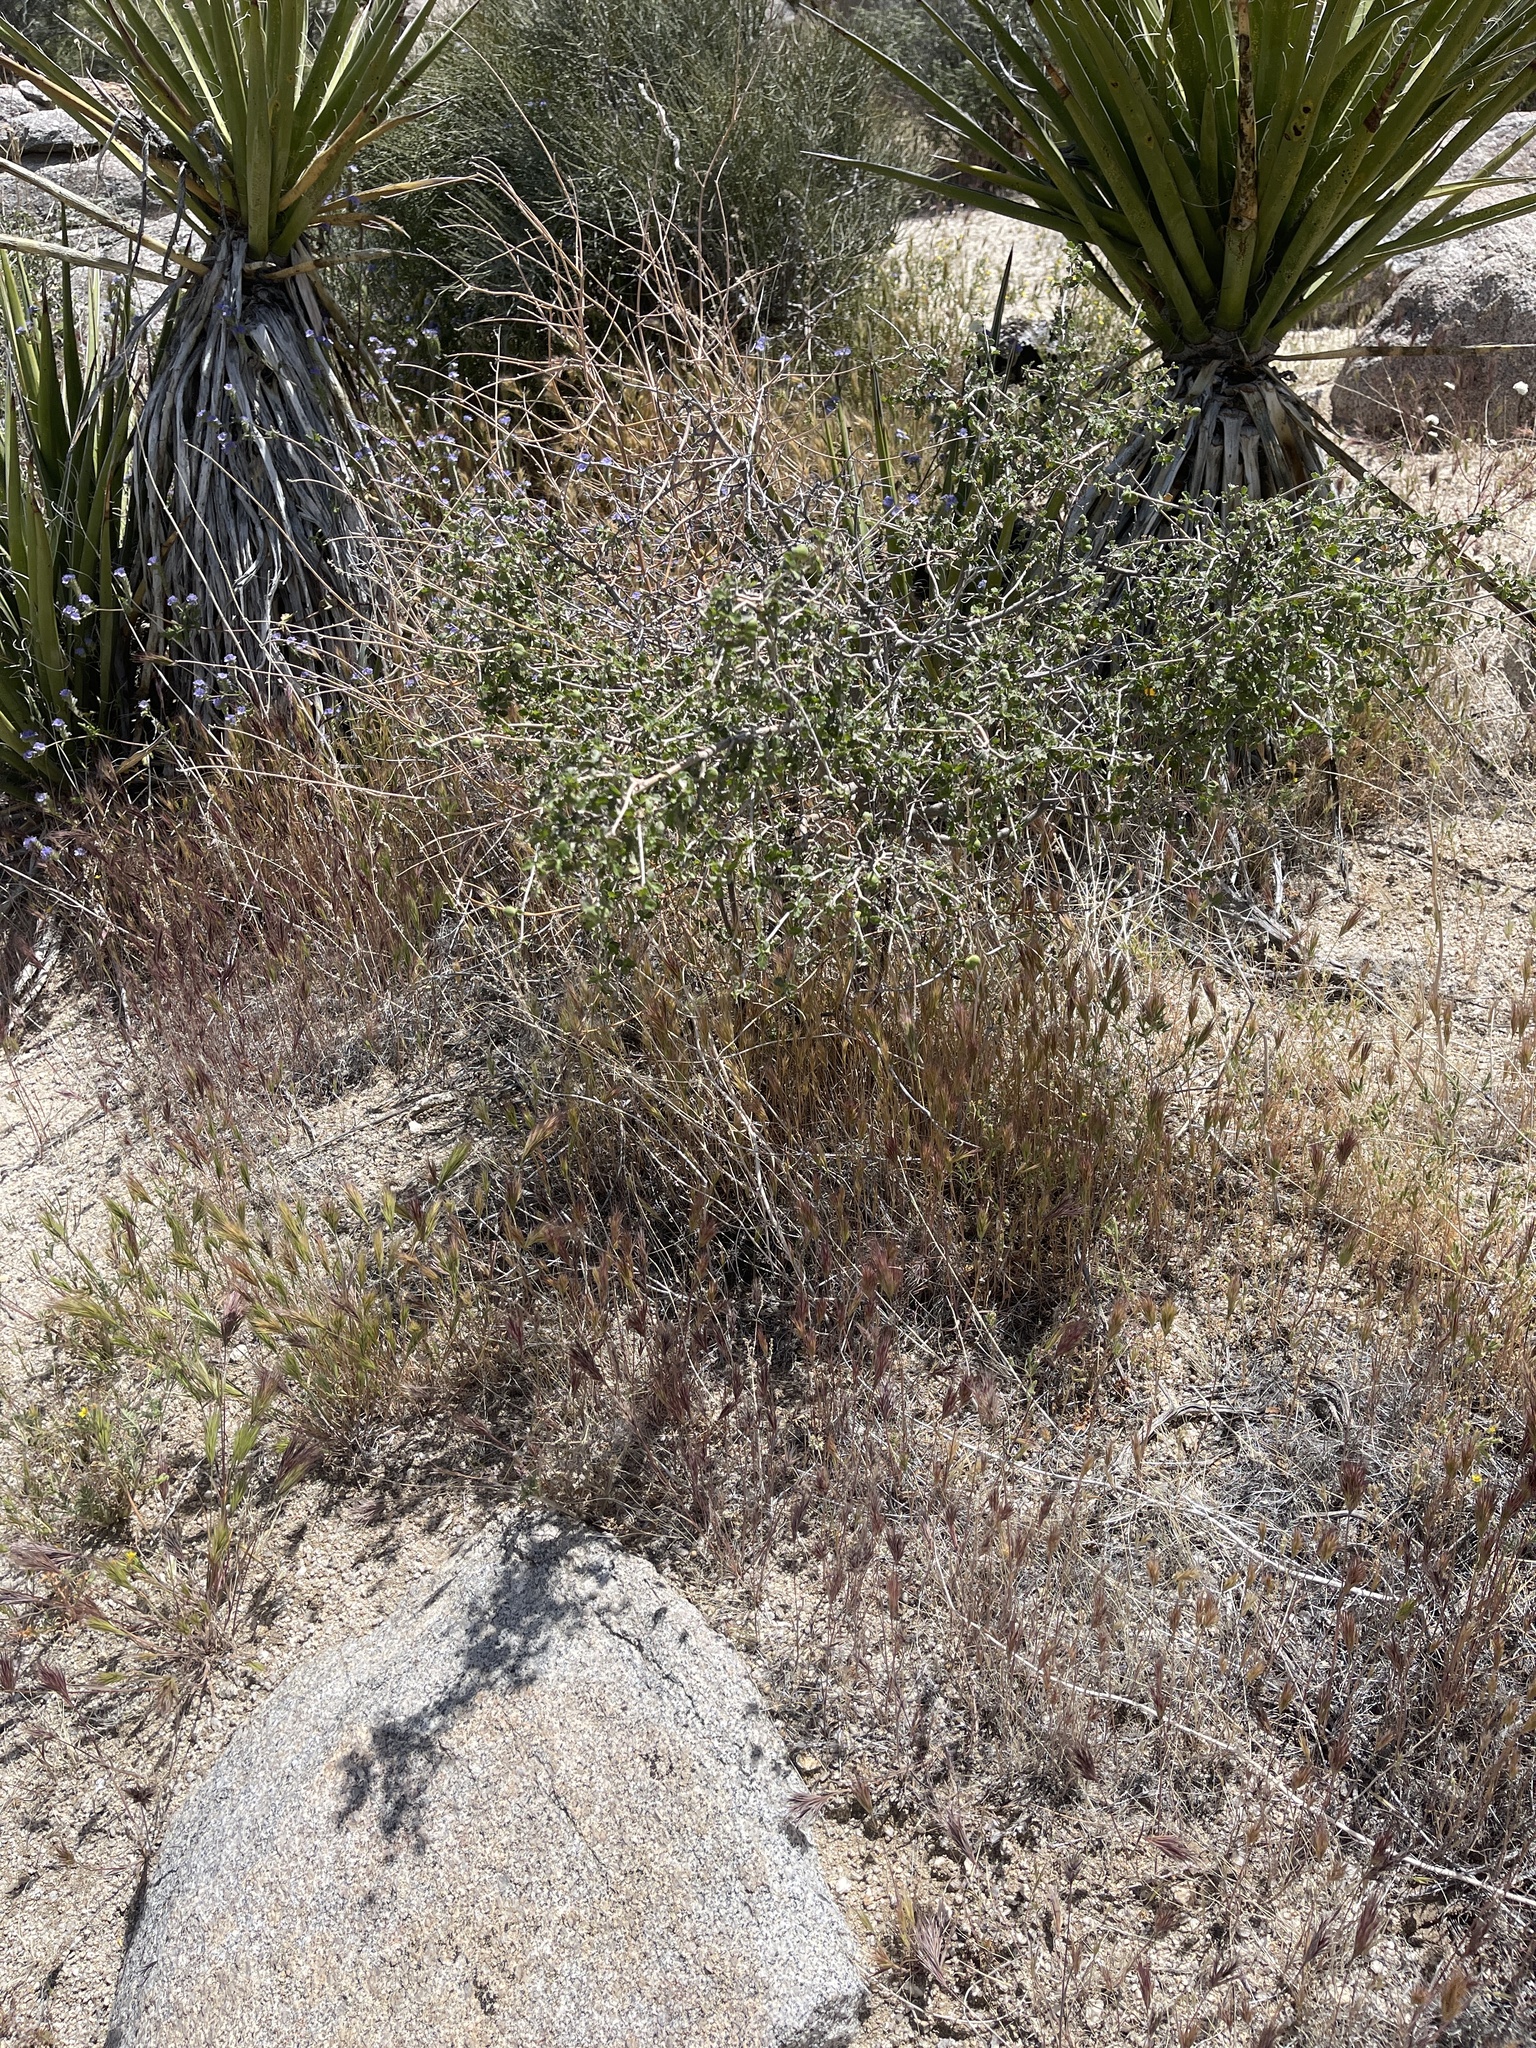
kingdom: Plantae
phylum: Tracheophyta
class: Magnoliopsida
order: Malpighiales
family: Euphorbiaceae
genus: Bernardia
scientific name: Bernardia incana
